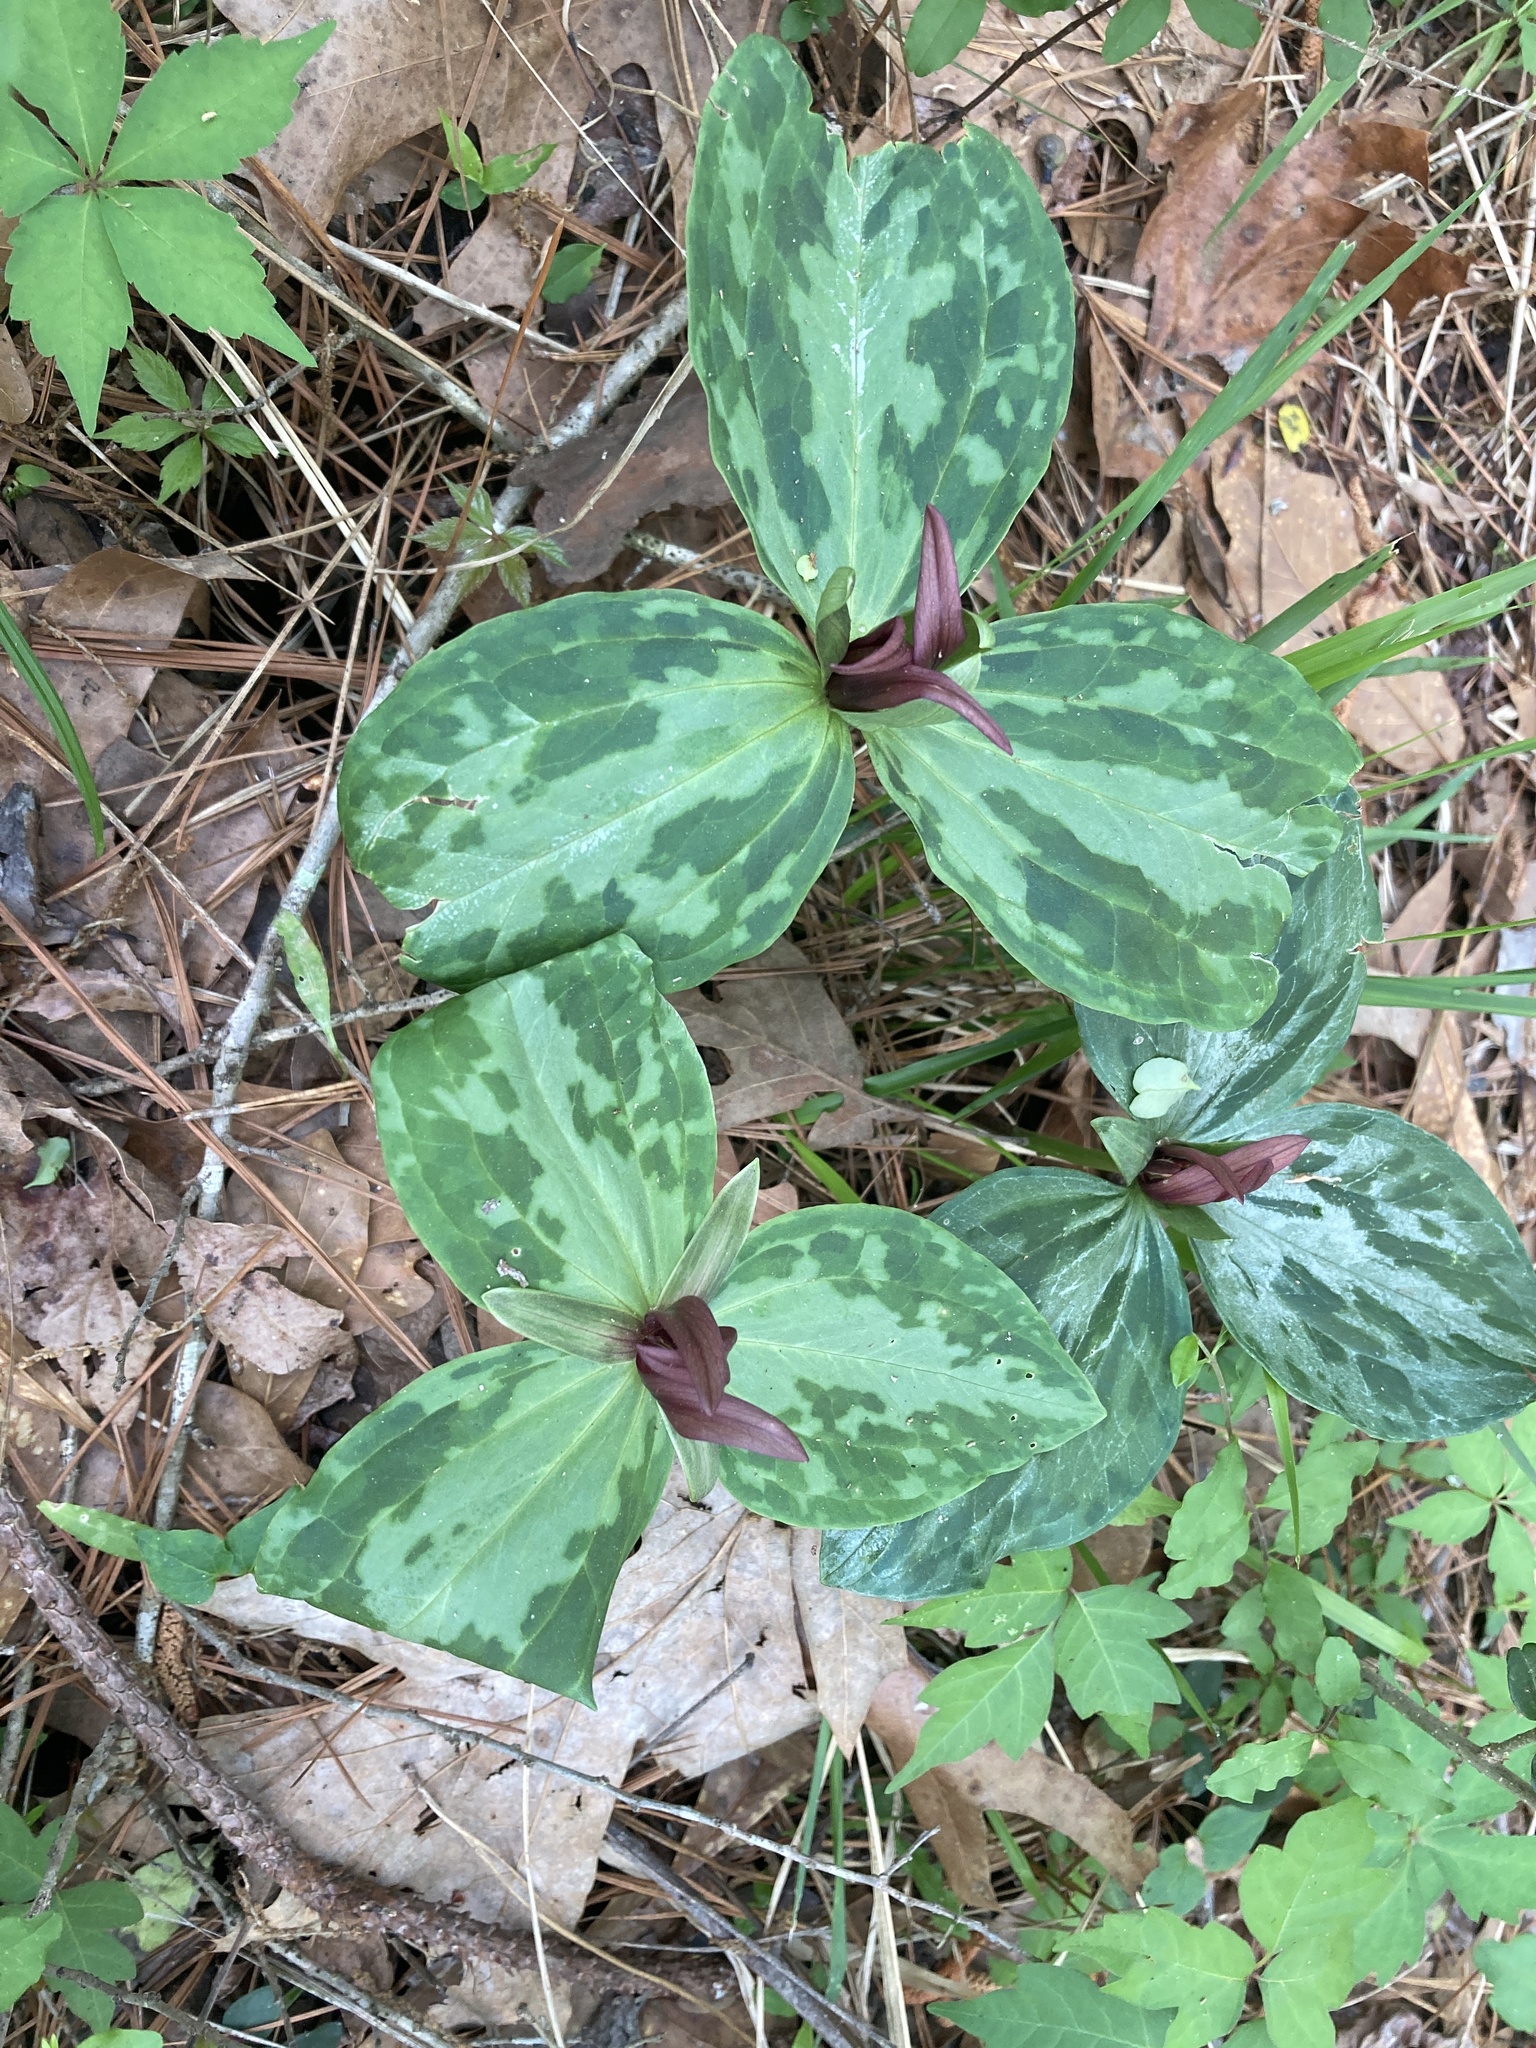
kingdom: Plantae
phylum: Tracheophyta
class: Liliopsida
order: Liliales
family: Melanthiaceae
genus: Trillium
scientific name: Trillium foetidissimum
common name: Mississippi river trillium
